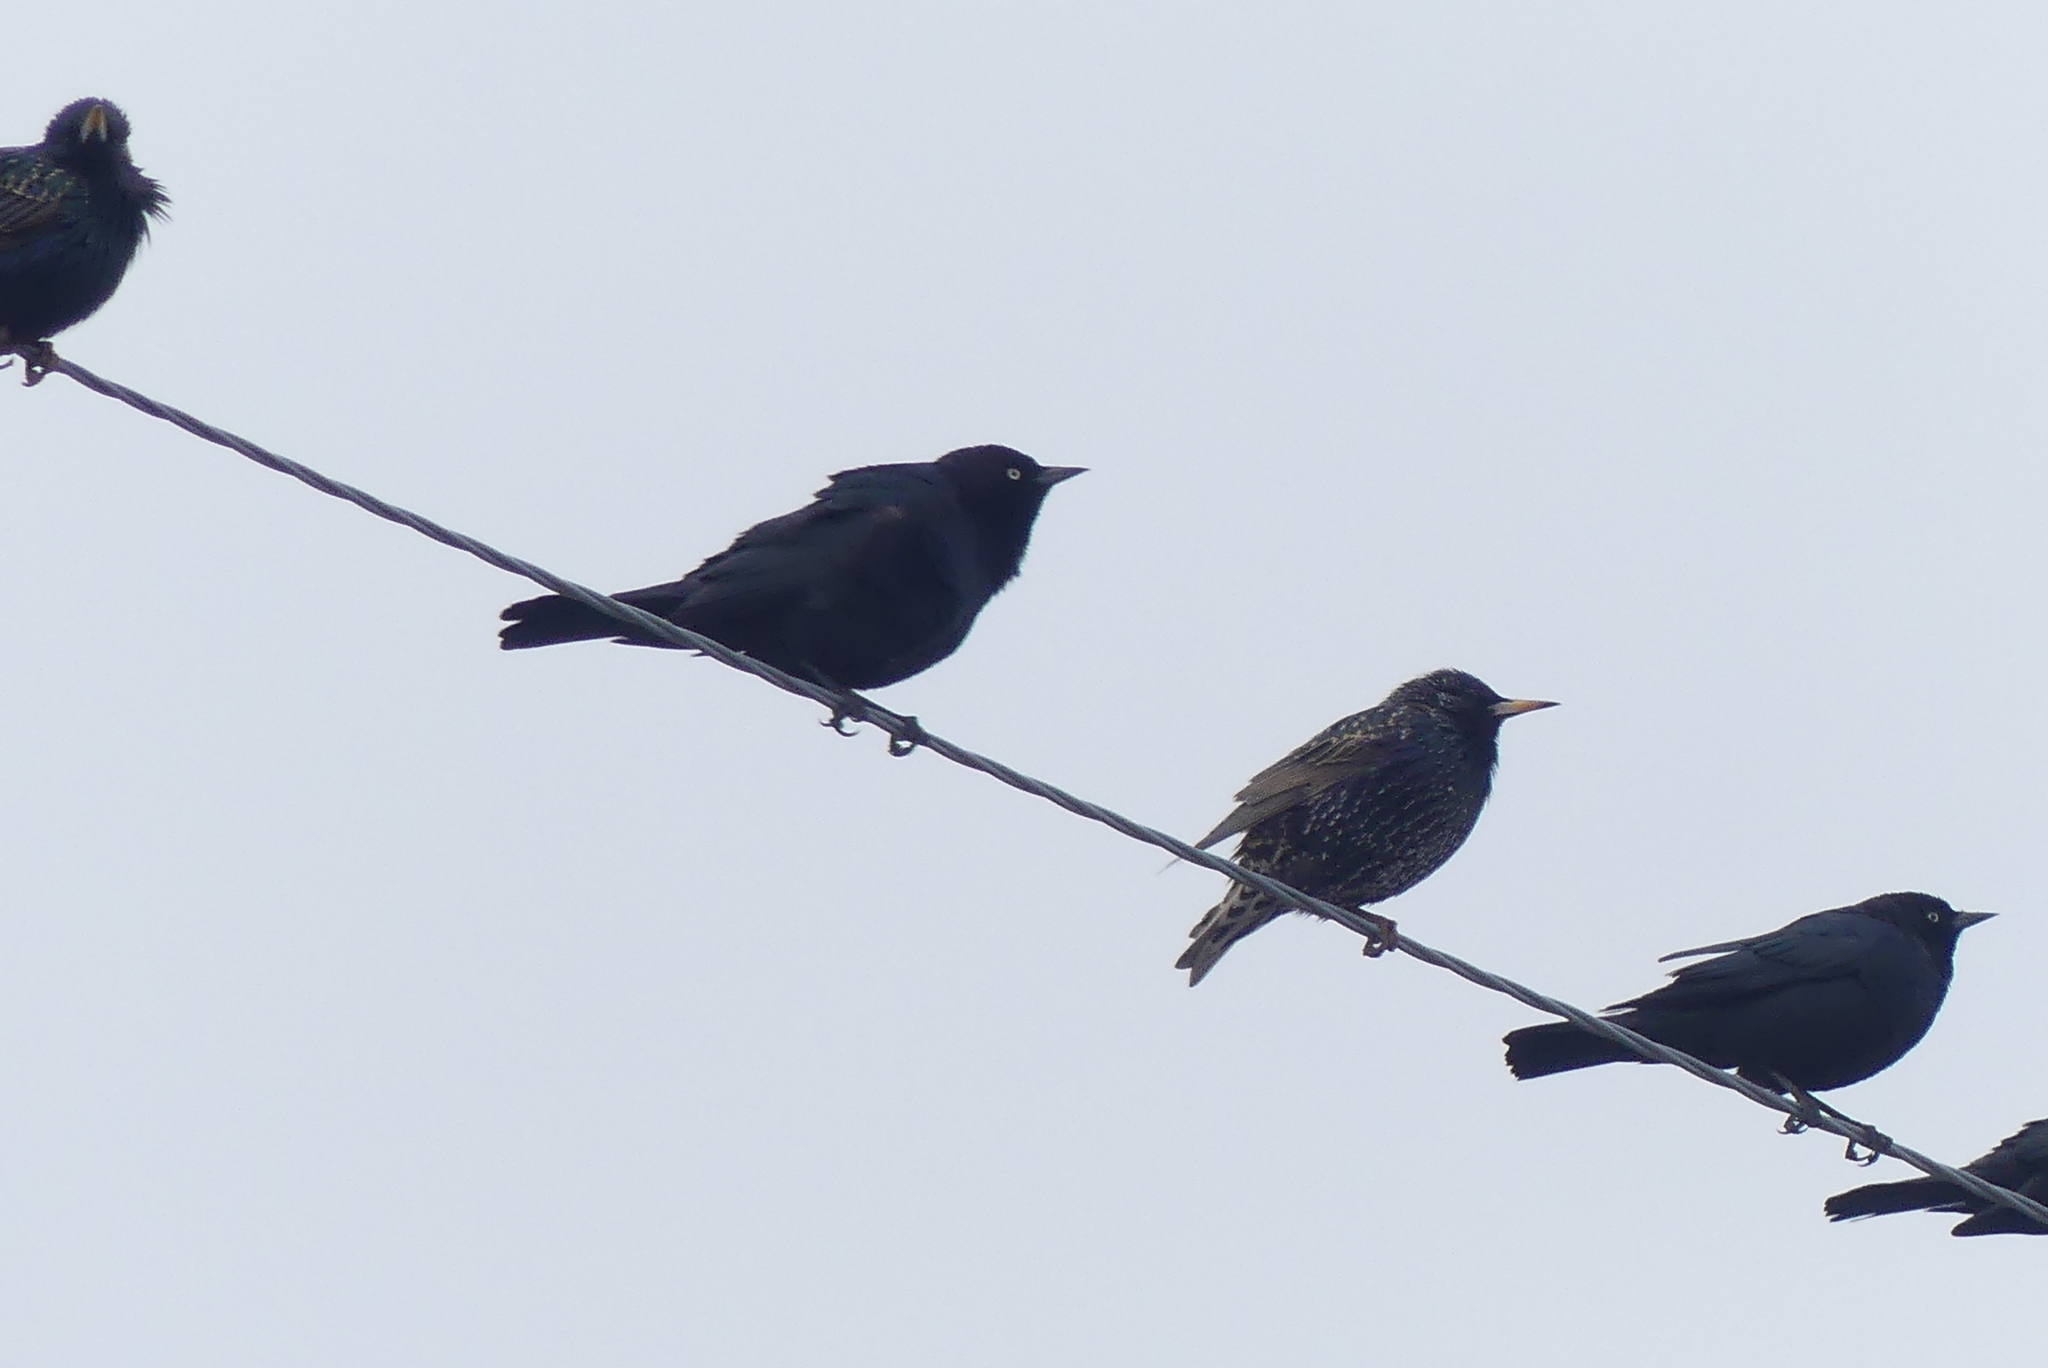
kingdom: Animalia
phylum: Chordata
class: Aves
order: Passeriformes
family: Sturnidae
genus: Sturnus
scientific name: Sturnus vulgaris
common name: Common starling
